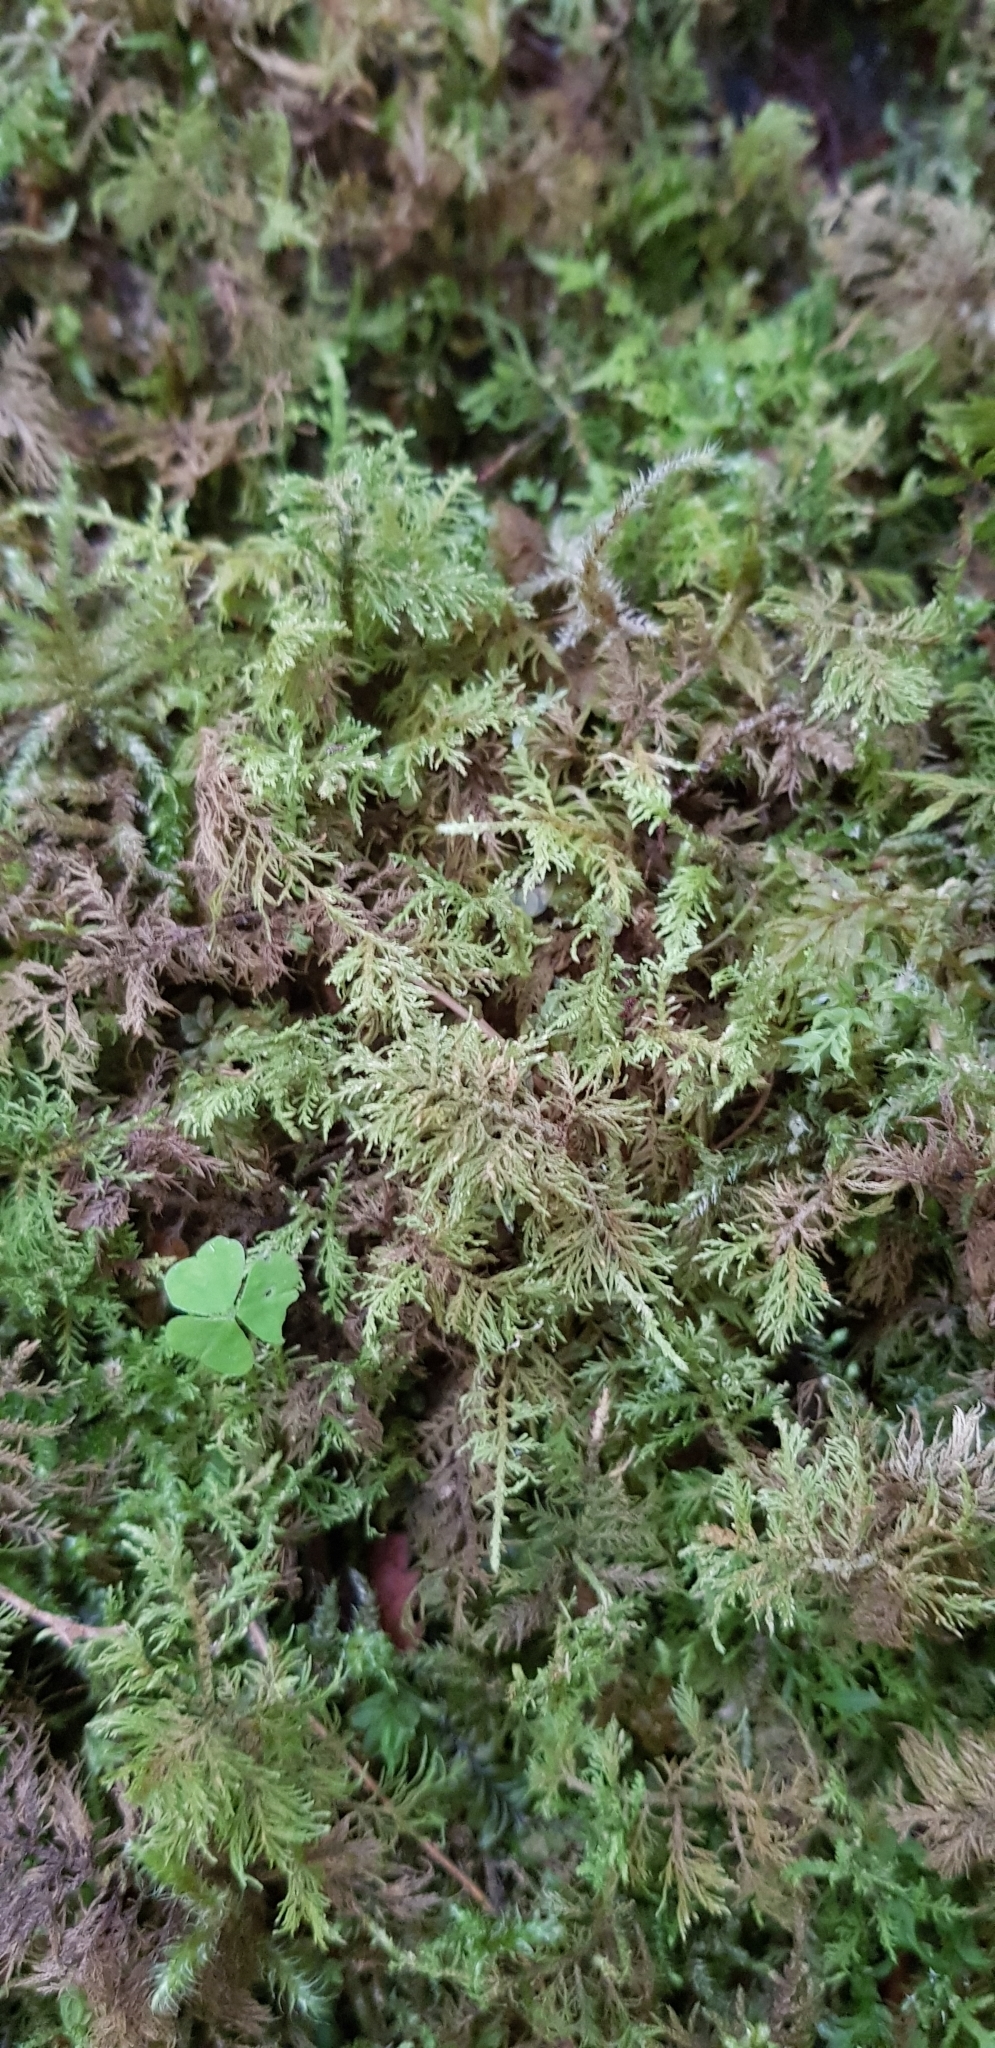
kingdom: Plantae
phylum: Bryophyta
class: Bryopsida
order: Hypnales
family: Hylocomiaceae
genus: Hylocomium
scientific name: Hylocomium splendens
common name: Stairstep moss
